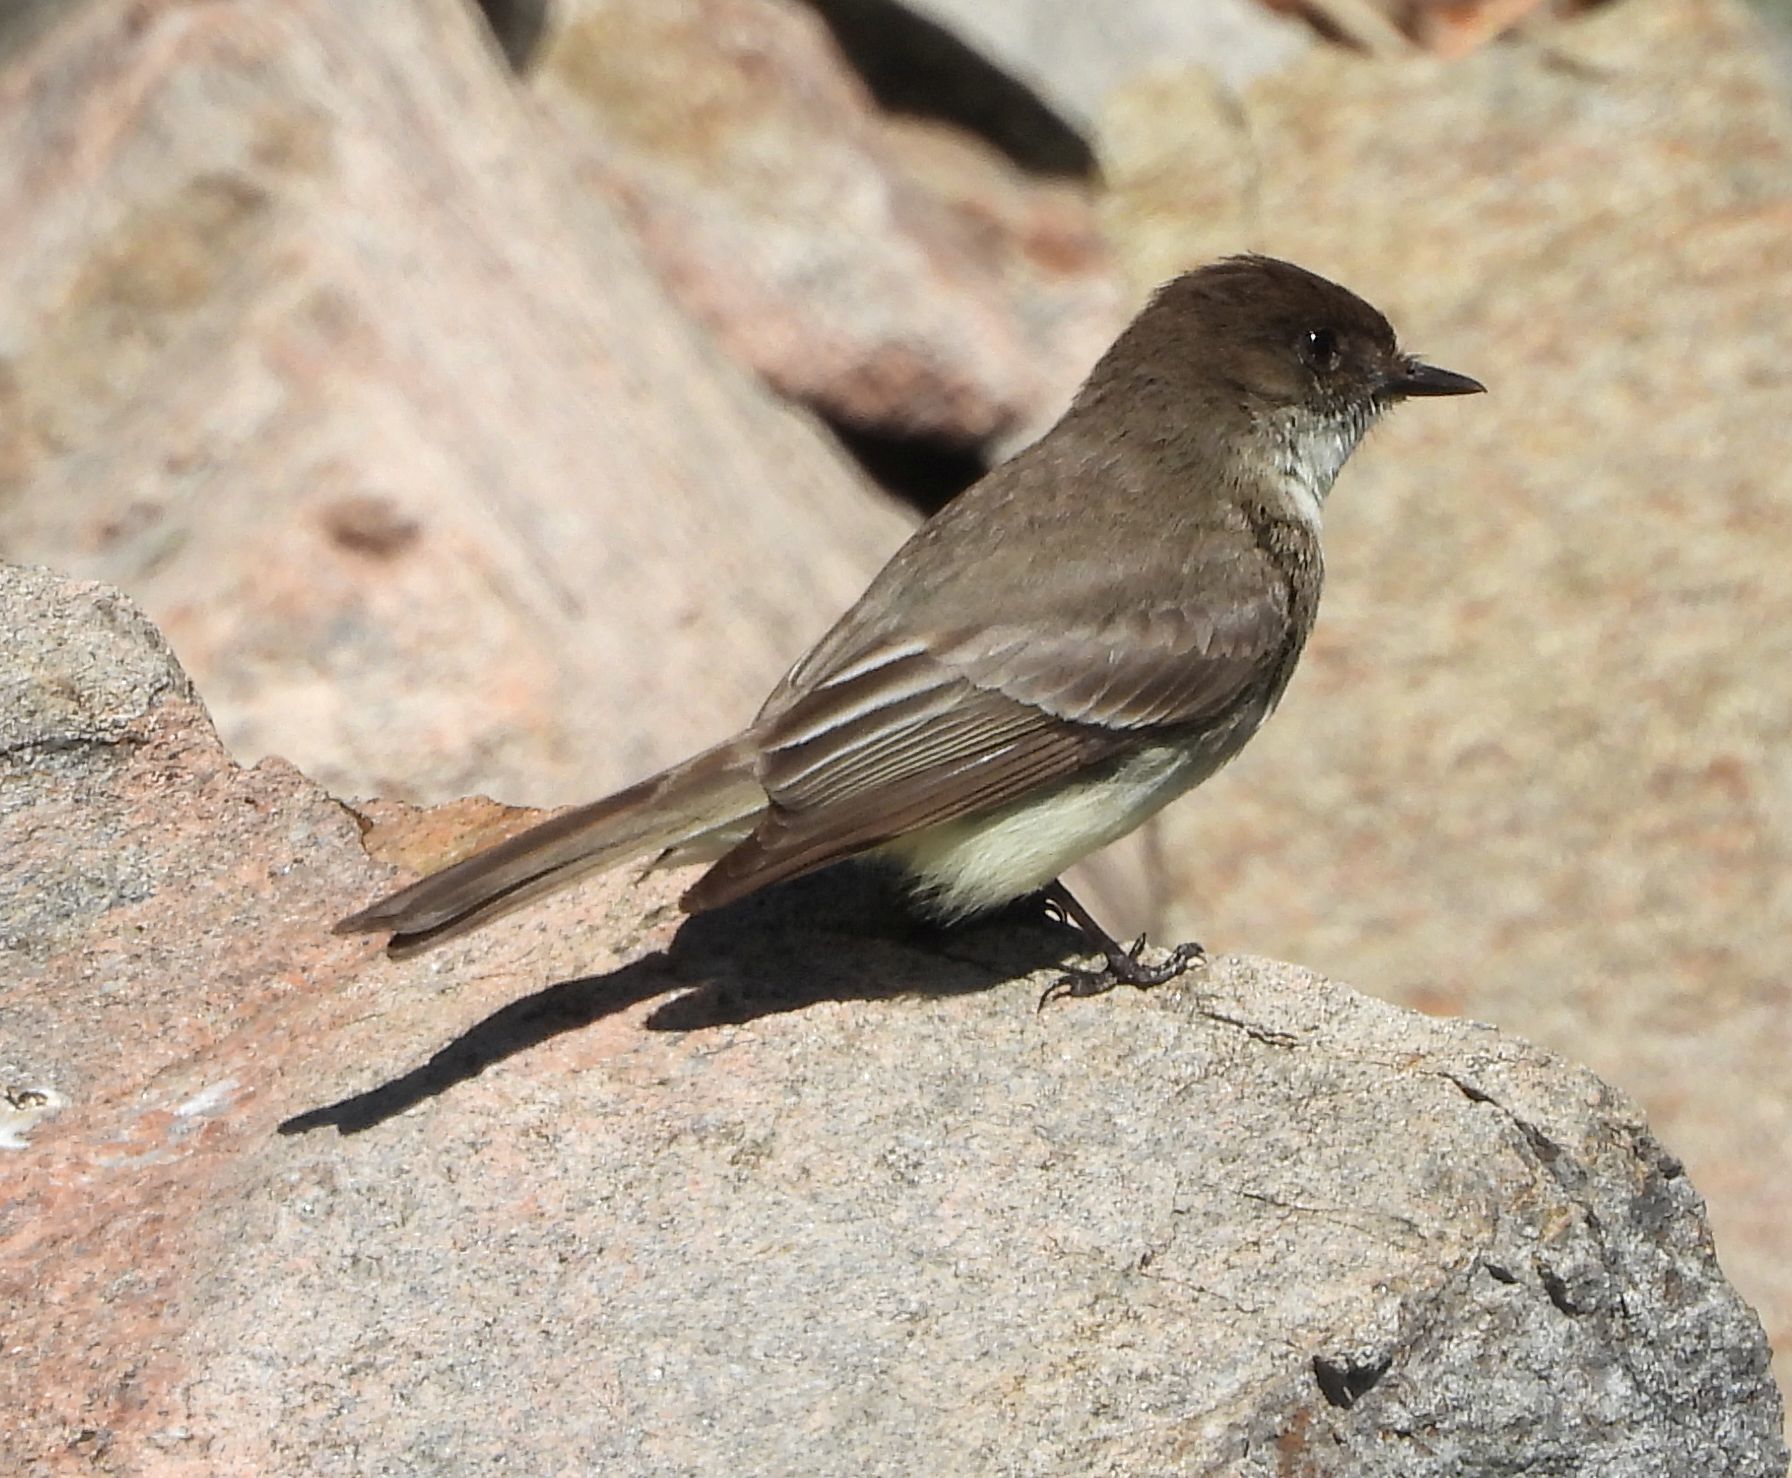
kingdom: Animalia
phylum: Chordata
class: Aves
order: Passeriformes
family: Tyrannidae
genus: Sayornis
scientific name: Sayornis phoebe
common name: Eastern phoebe
